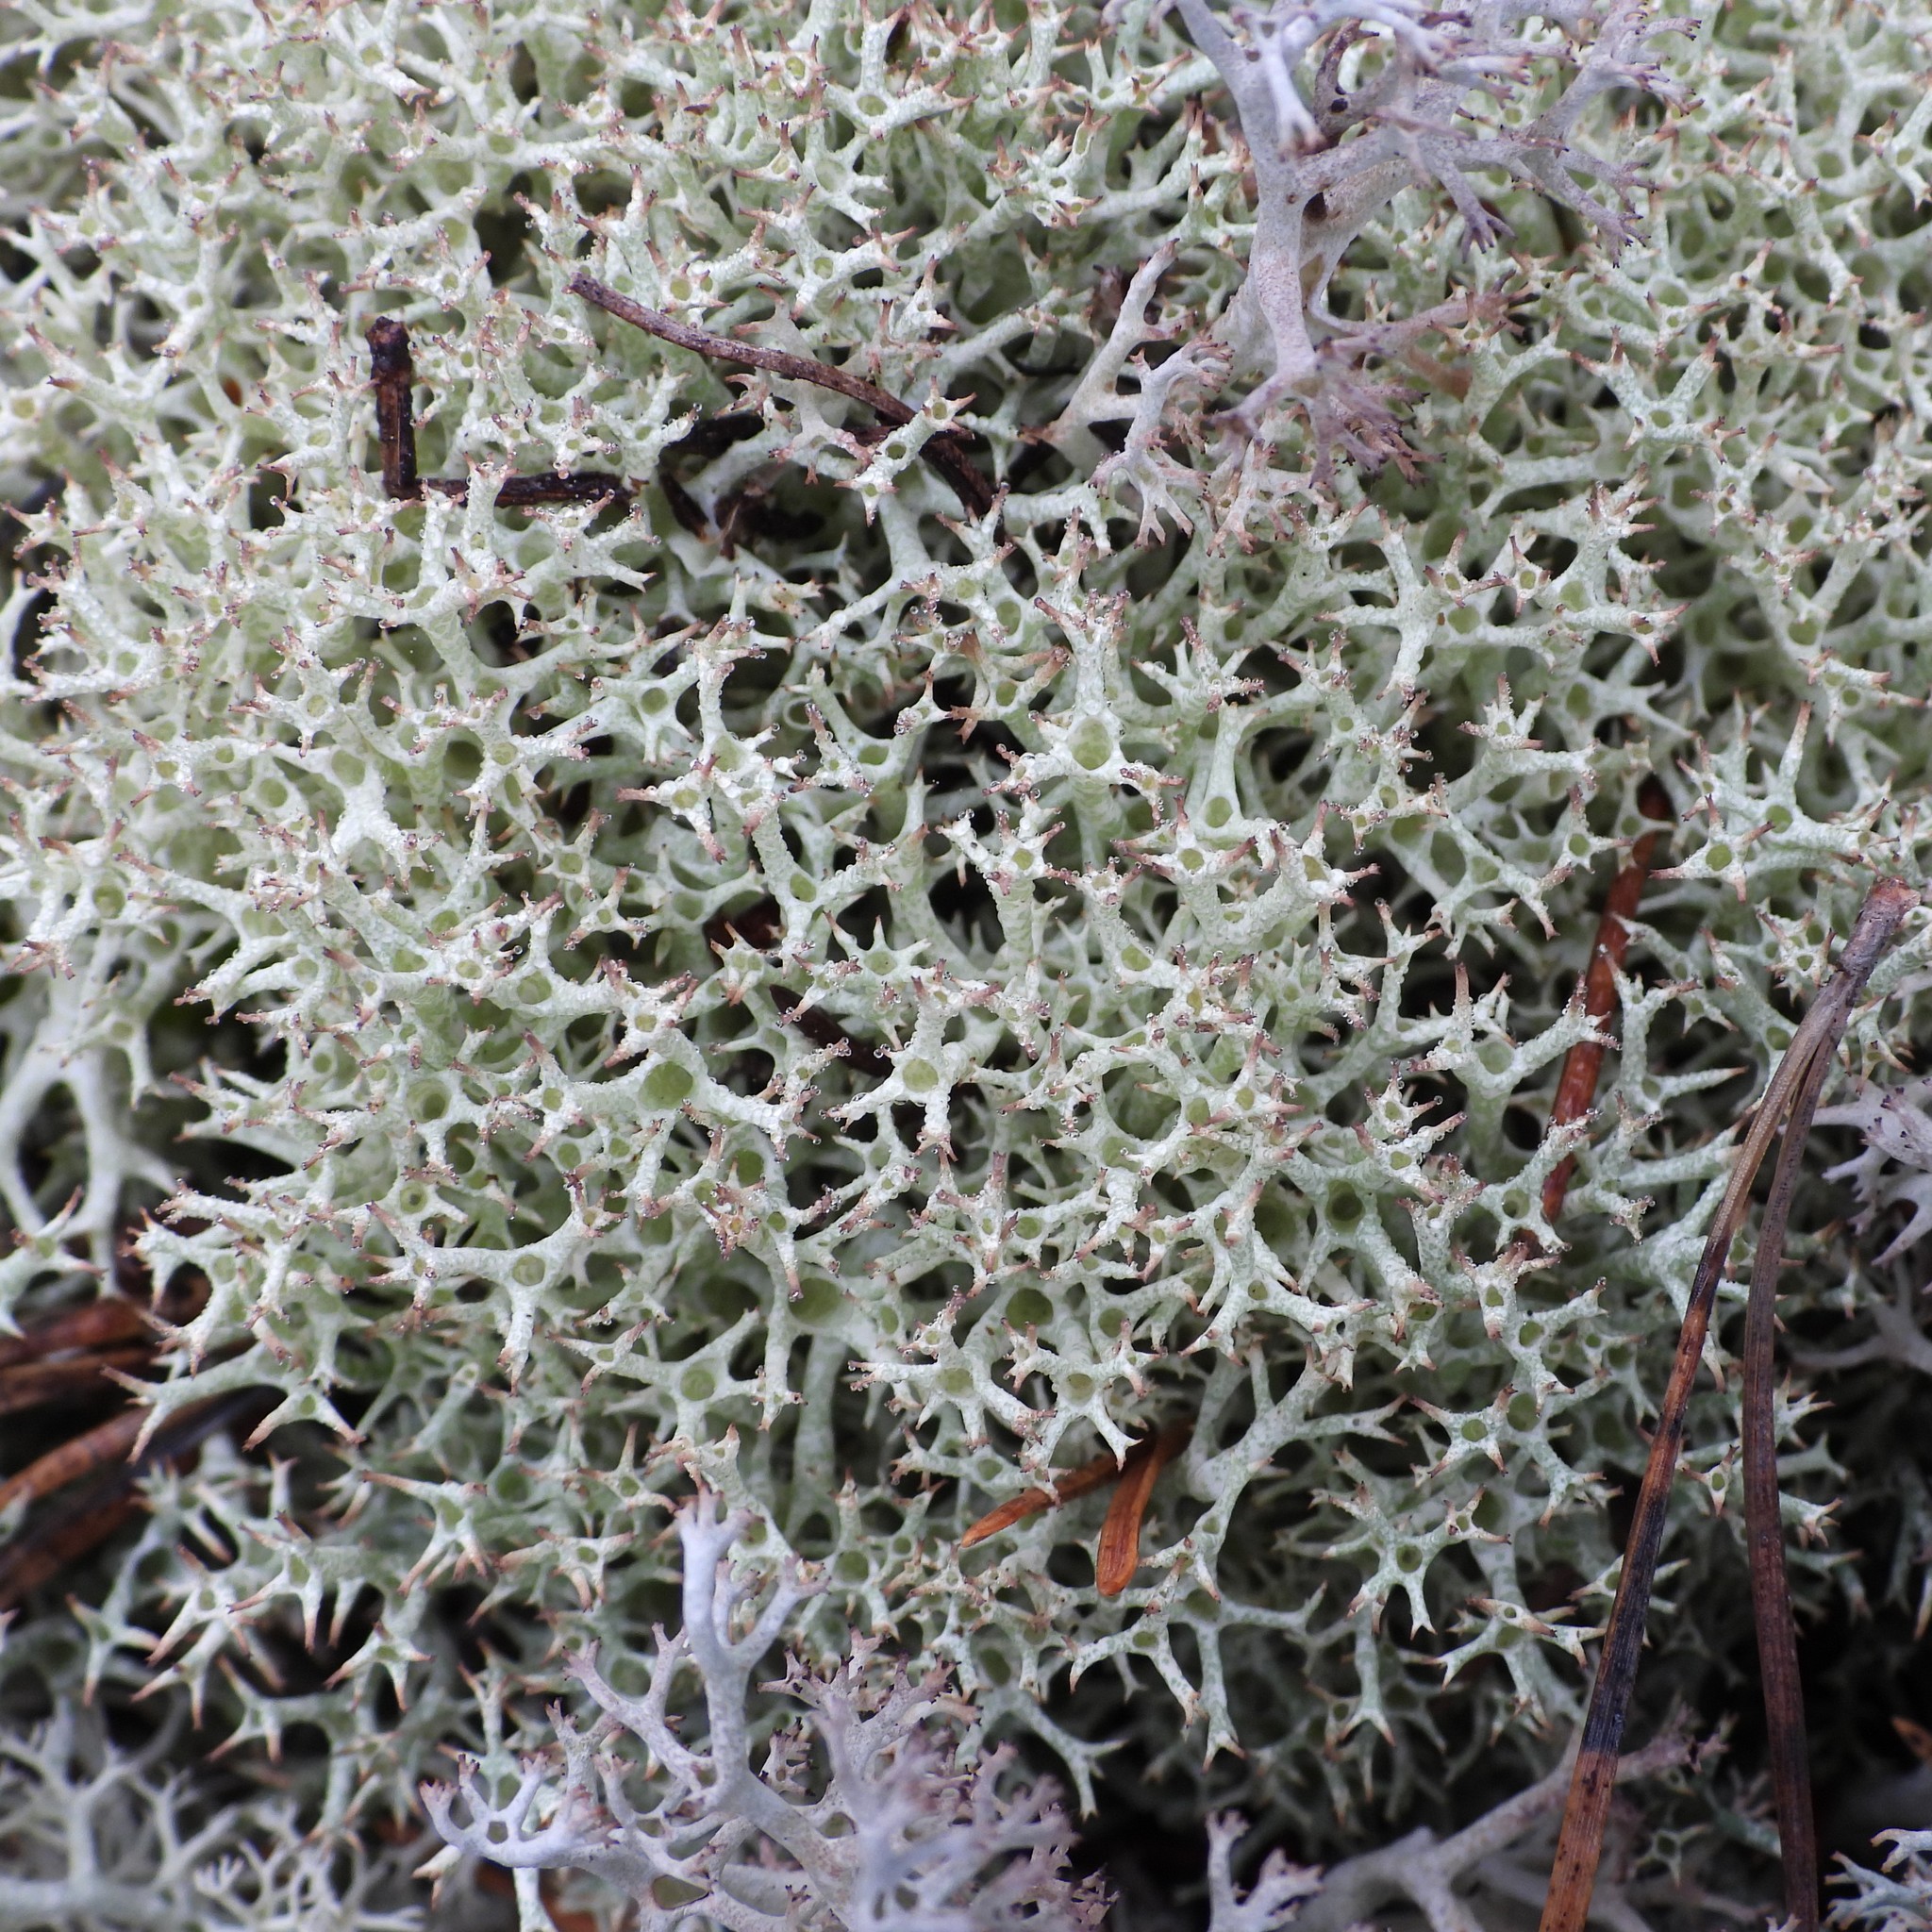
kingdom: Fungi
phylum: Ascomycota
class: Lecanoromycetes
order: Lecanorales
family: Cladoniaceae
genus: Cladonia
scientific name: Cladonia uncialis
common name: Thorn lichen
